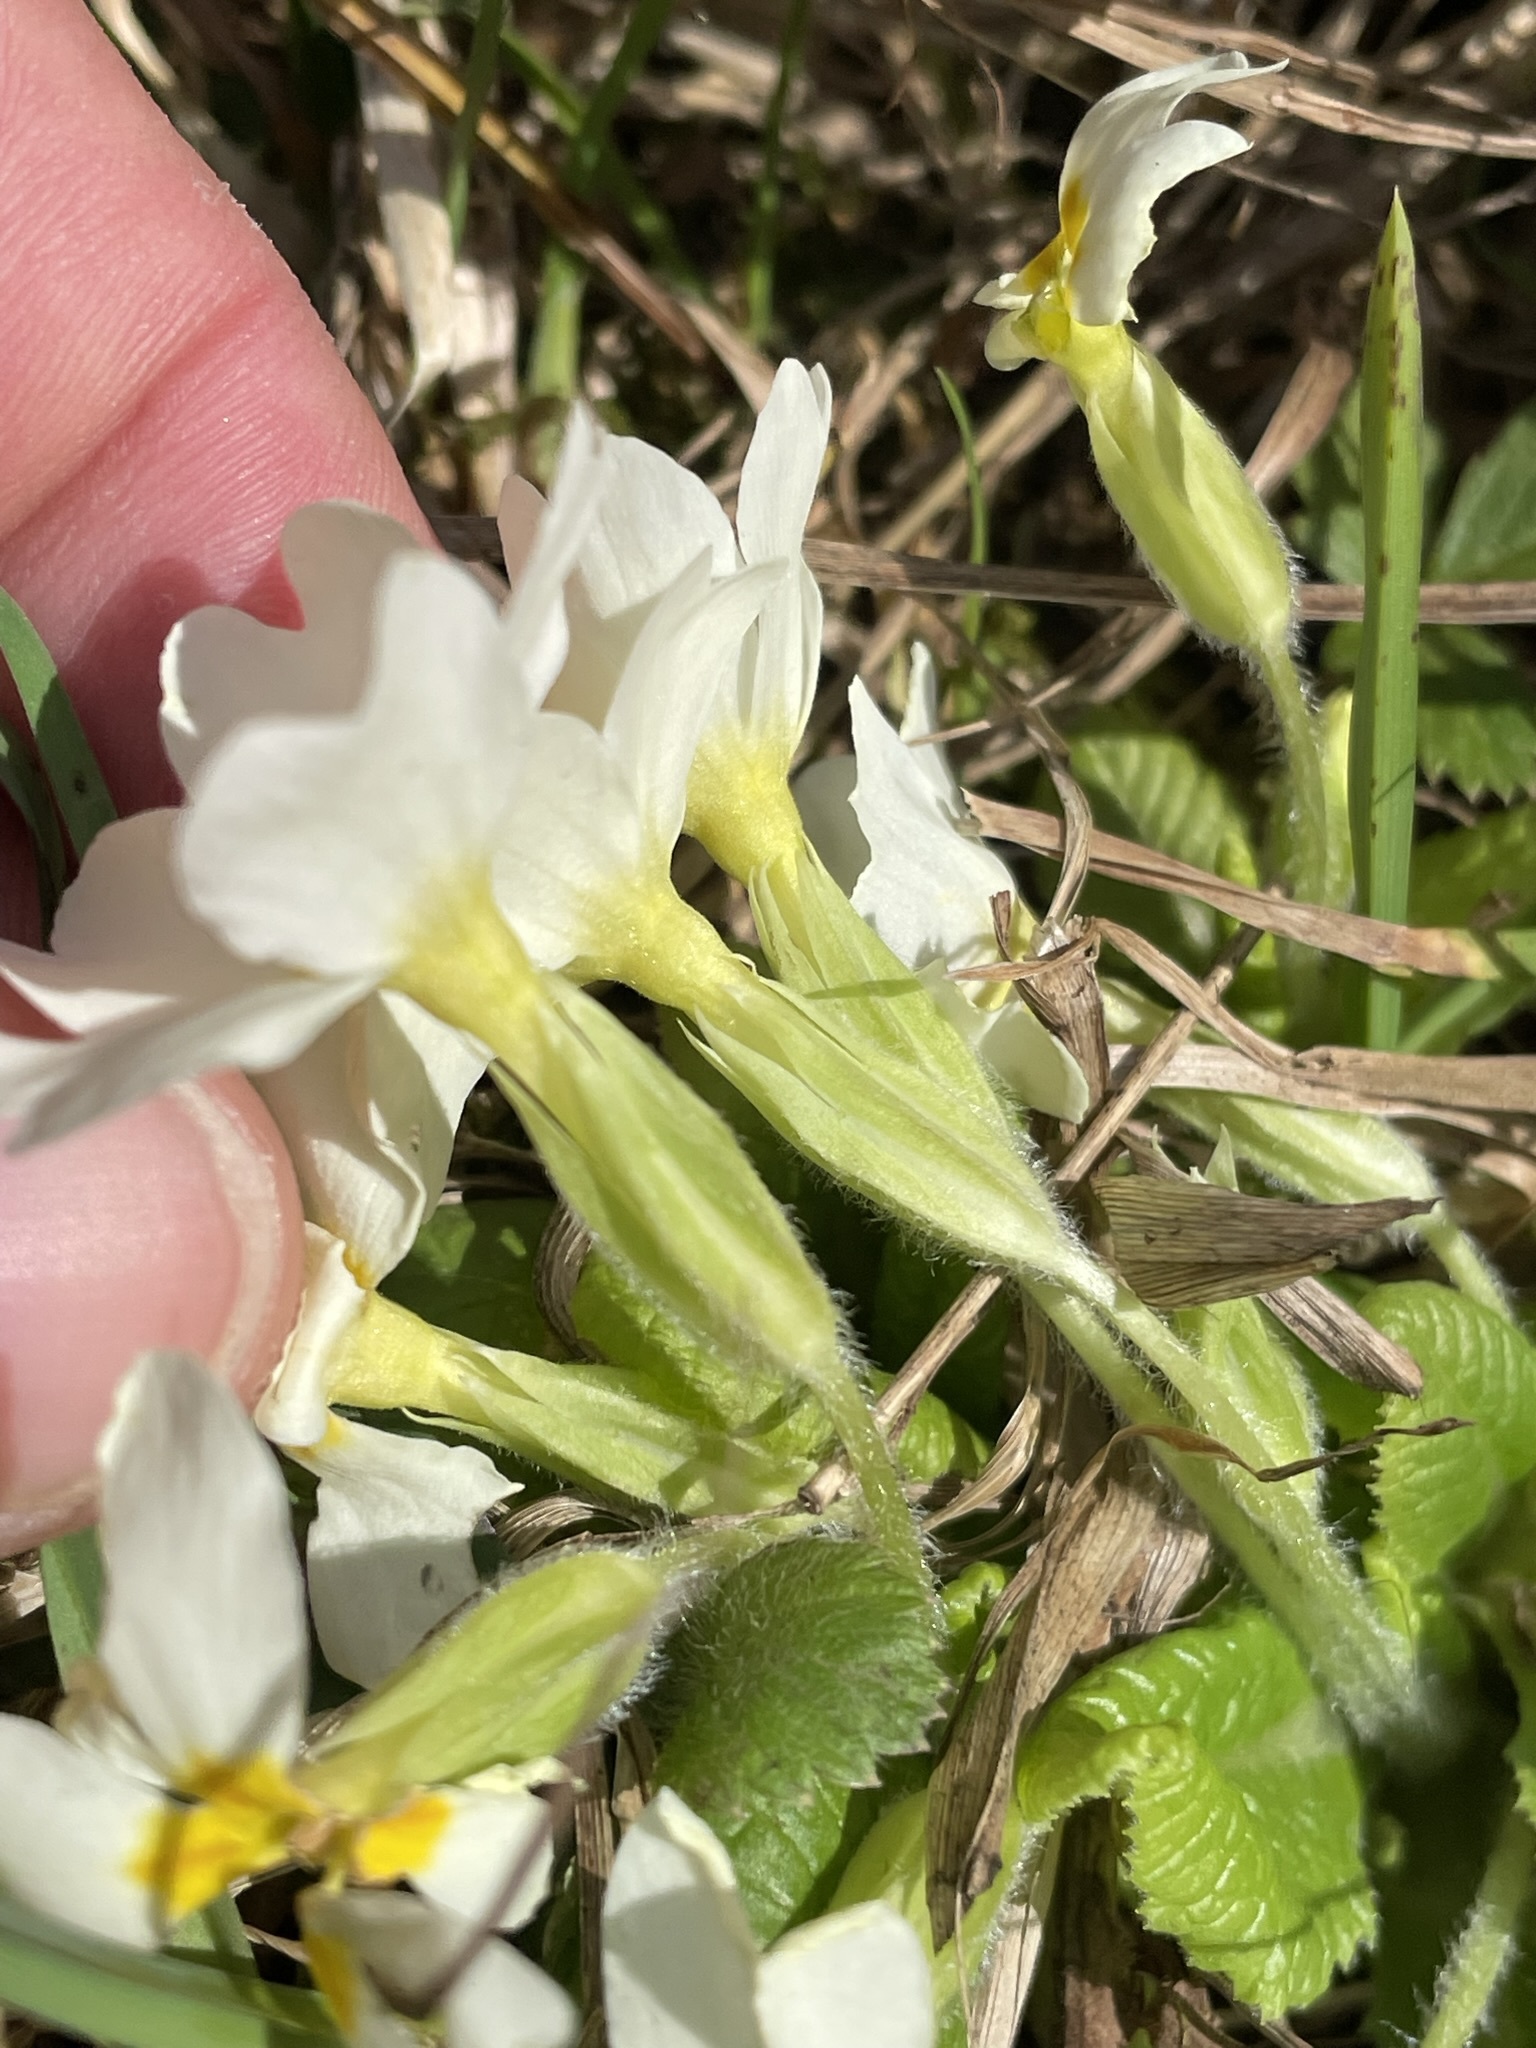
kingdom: Plantae
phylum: Tracheophyta
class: Magnoliopsida
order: Ericales
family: Primulaceae
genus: Primula
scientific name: Primula vulgaris
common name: Primrose
